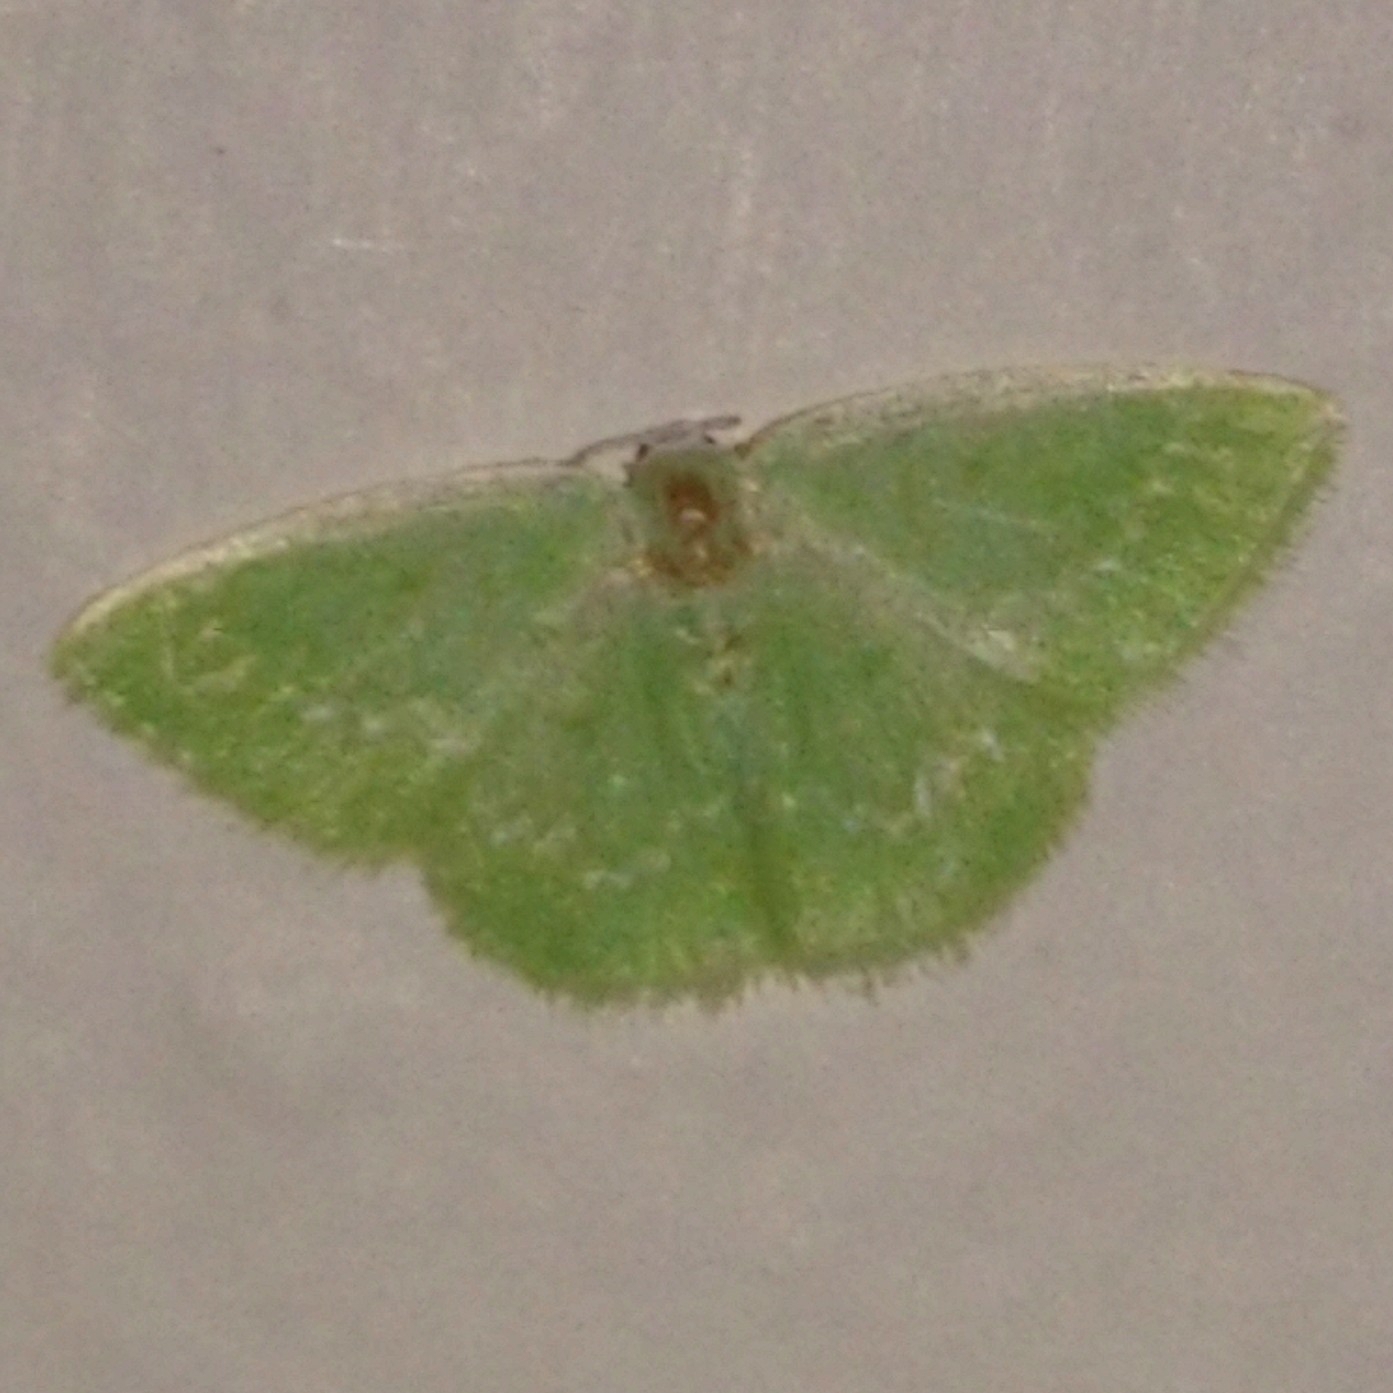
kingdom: Animalia
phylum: Arthropoda
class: Insecta
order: Lepidoptera
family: Geometridae
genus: Comostolopsis
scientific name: Comostolopsis germana
